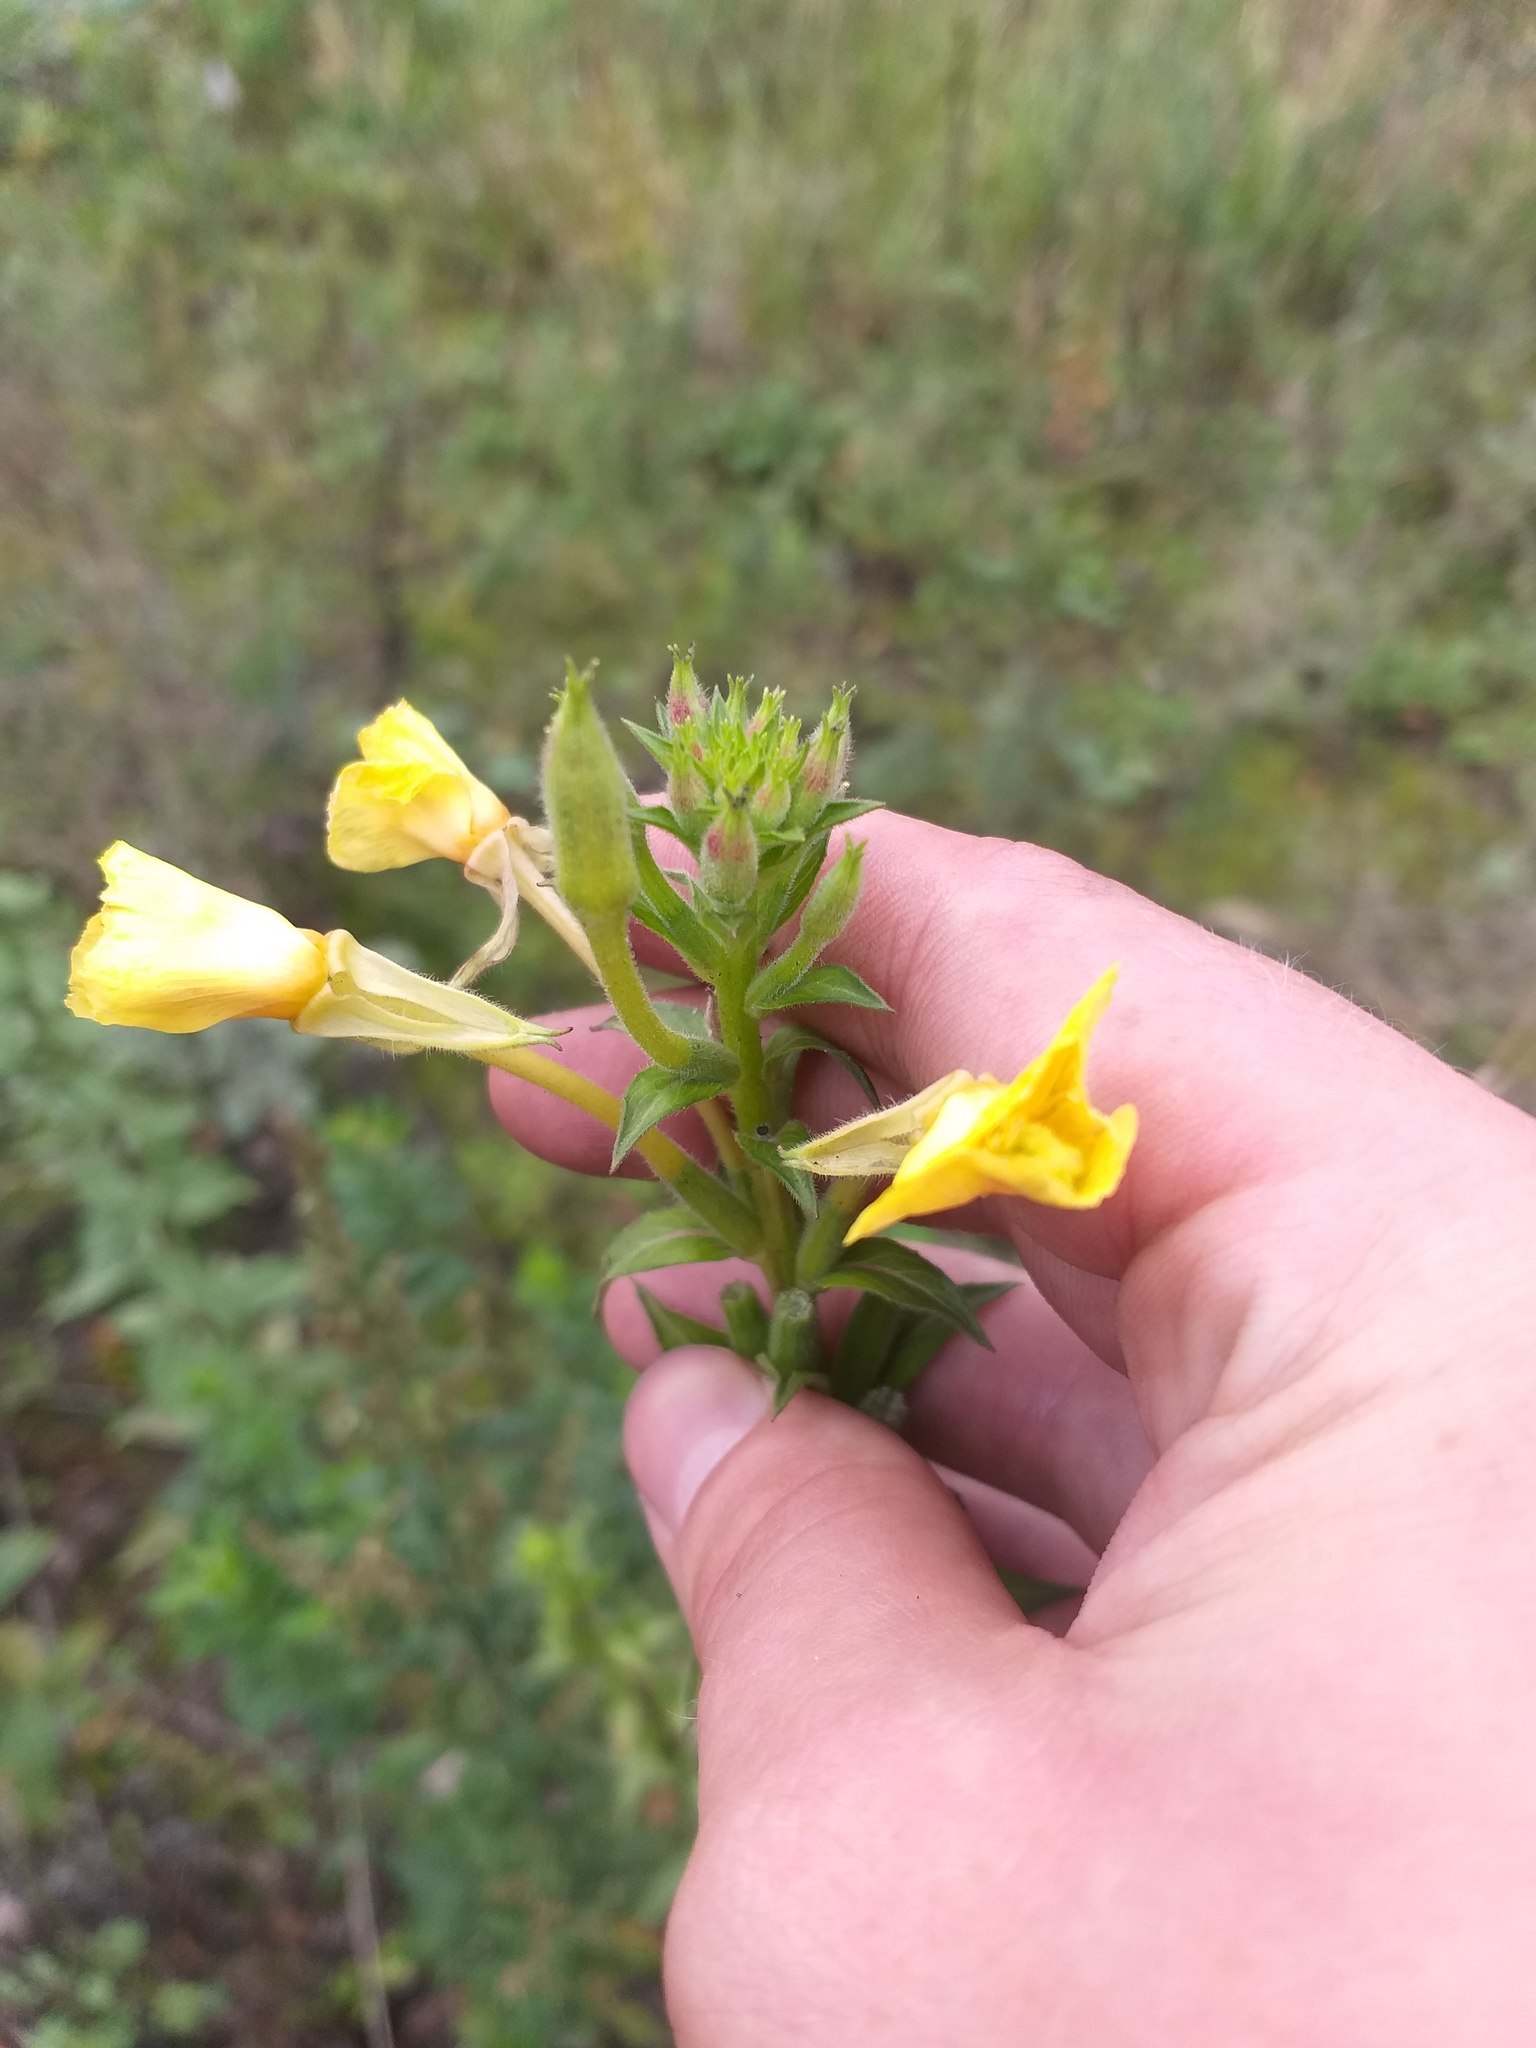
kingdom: Plantae
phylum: Tracheophyta
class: Magnoliopsida
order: Myrtales
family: Onagraceae
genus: Oenothera
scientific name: Oenothera paradoxa
